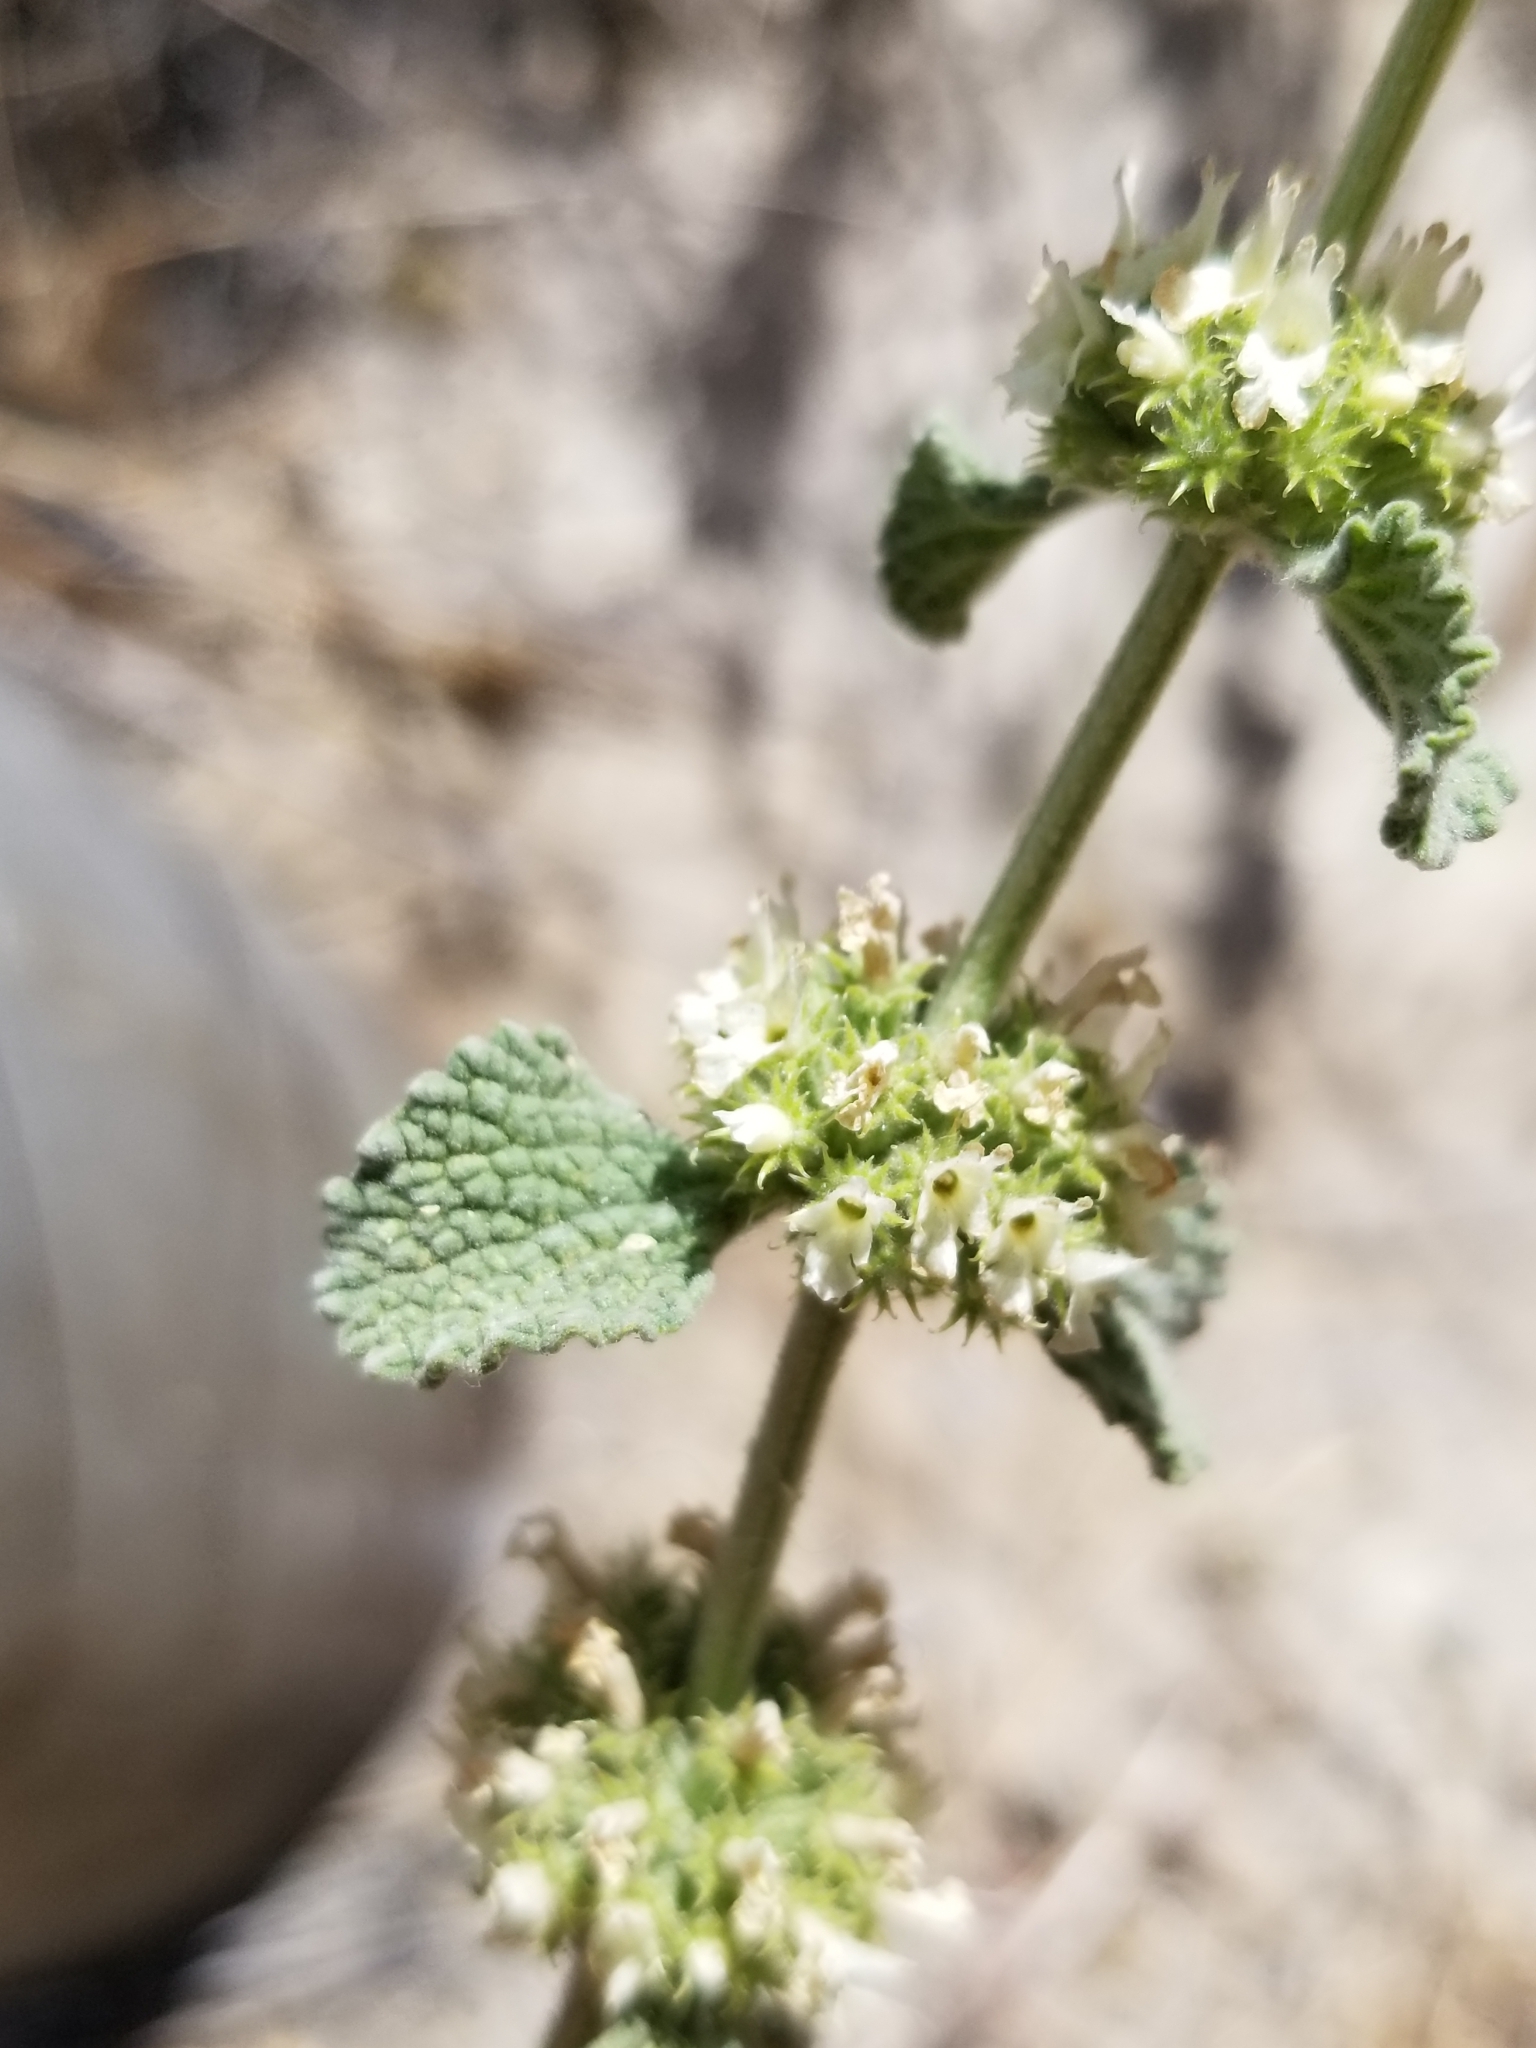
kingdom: Plantae
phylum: Tracheophyta
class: Magnoliopsida
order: Lamiales
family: Lamiaceae
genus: Marrubium
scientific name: Marrubium vulgare
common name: Horehound
